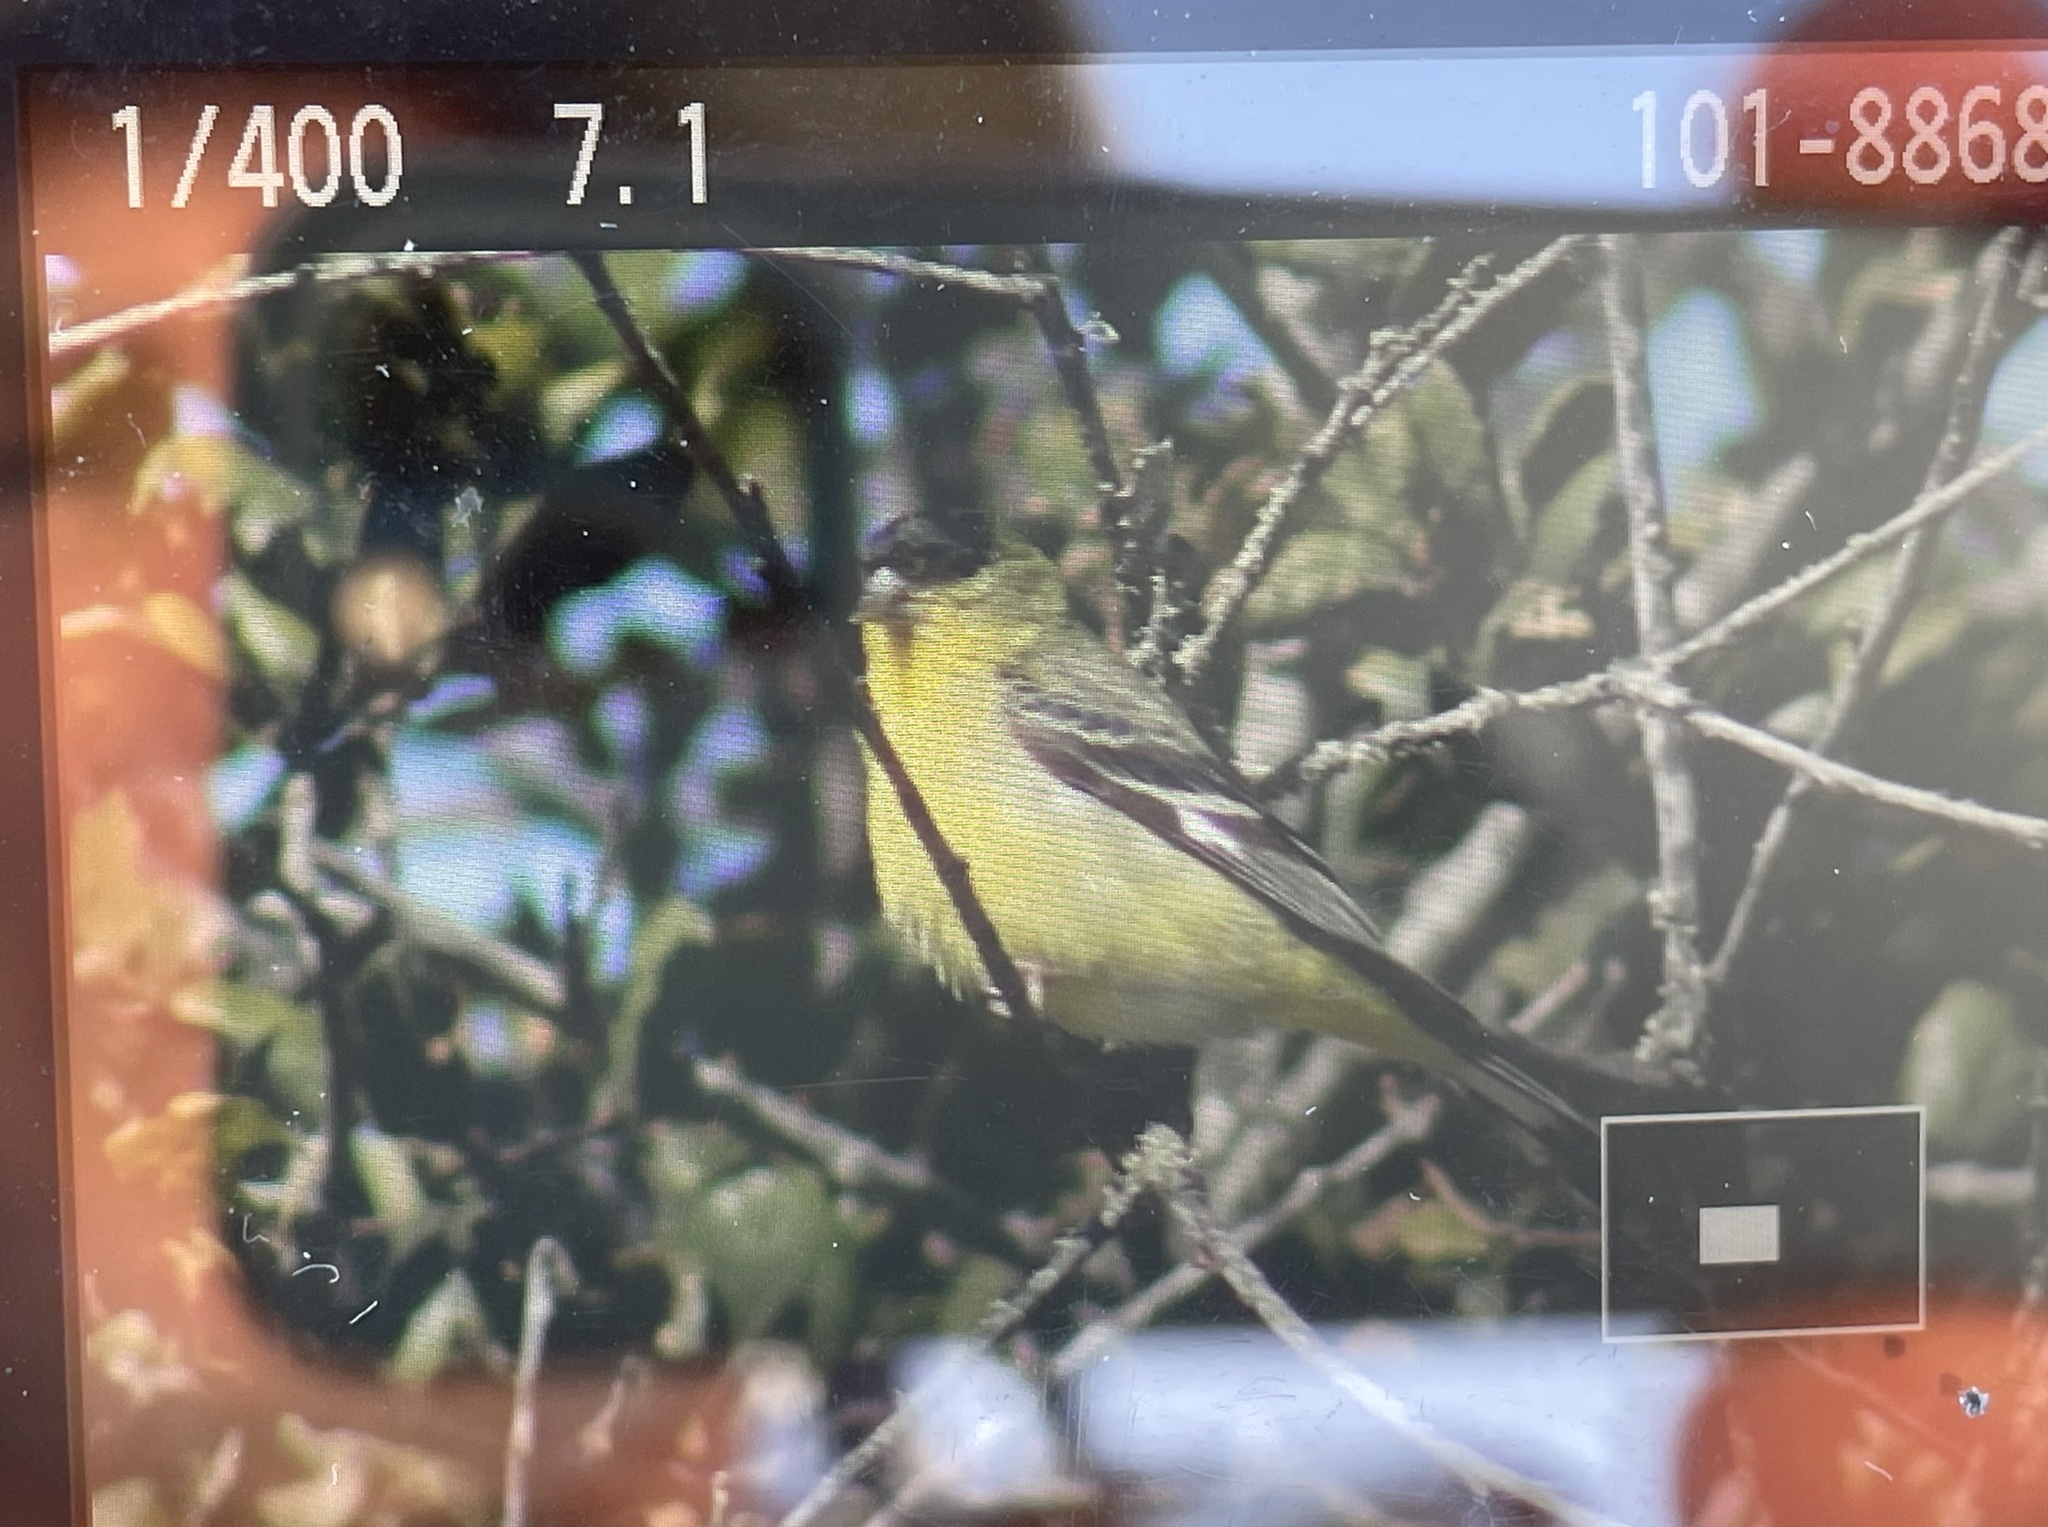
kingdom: Animalia
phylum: Chordata
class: Aves
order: Passeriformes
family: Fringillidae
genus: Spinus
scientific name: Spinus psaltria
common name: Lesser goldfinch
